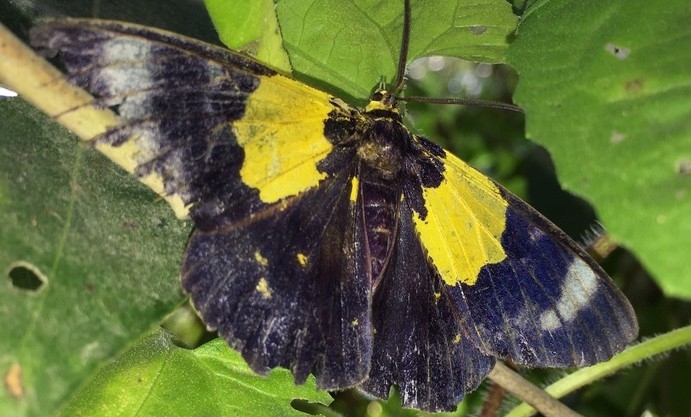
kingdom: Animalia
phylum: Arthropoda
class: Insecta
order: Lepidoptera
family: Geometridae
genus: Dysphania
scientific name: Dysphania andamana
